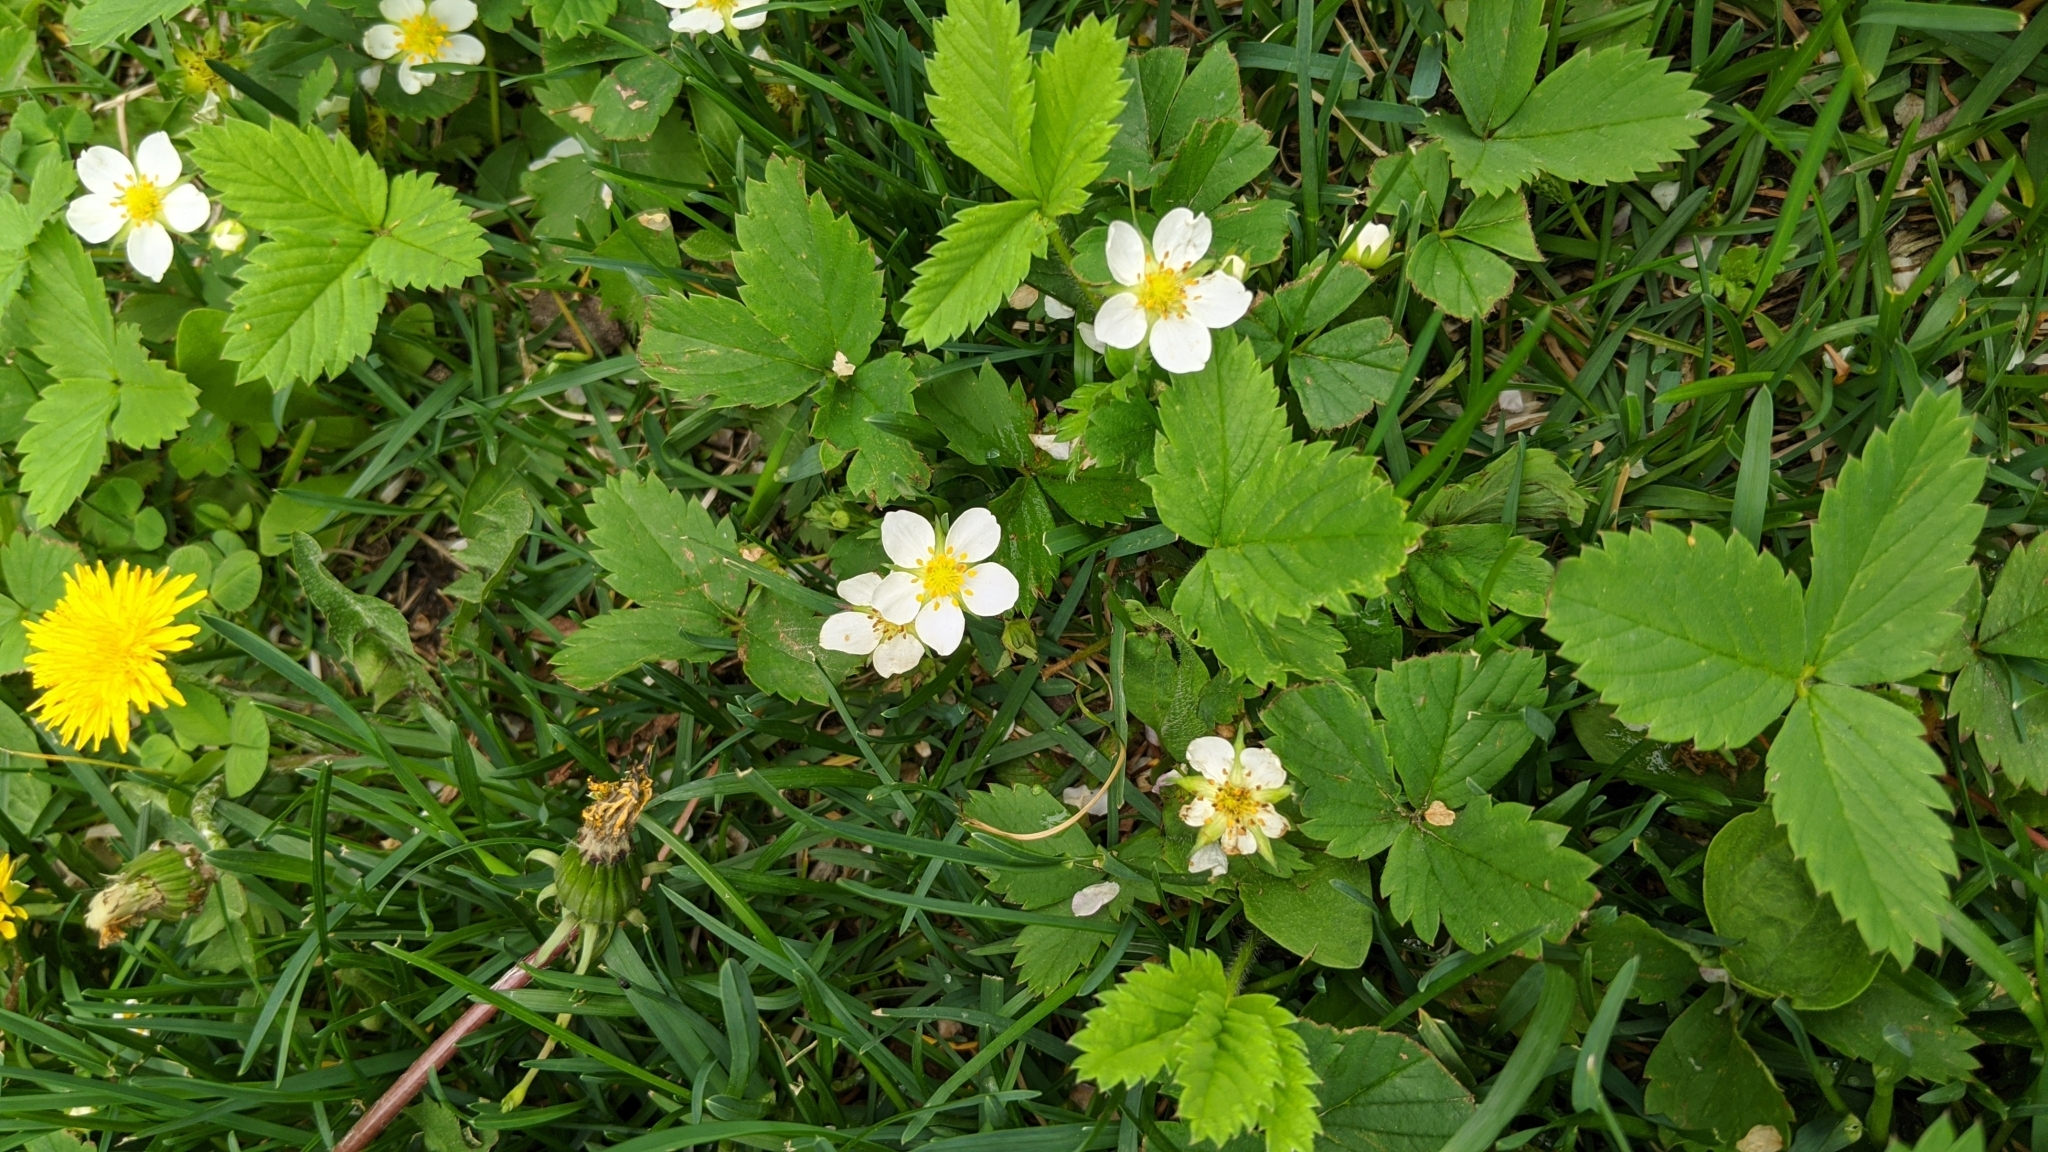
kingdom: Plantae
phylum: Tracheophyta
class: Magnoliopsida
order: Rosales
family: Rosaceae
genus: Fragaria
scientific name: Fragaria vesca
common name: Wild strawberry
